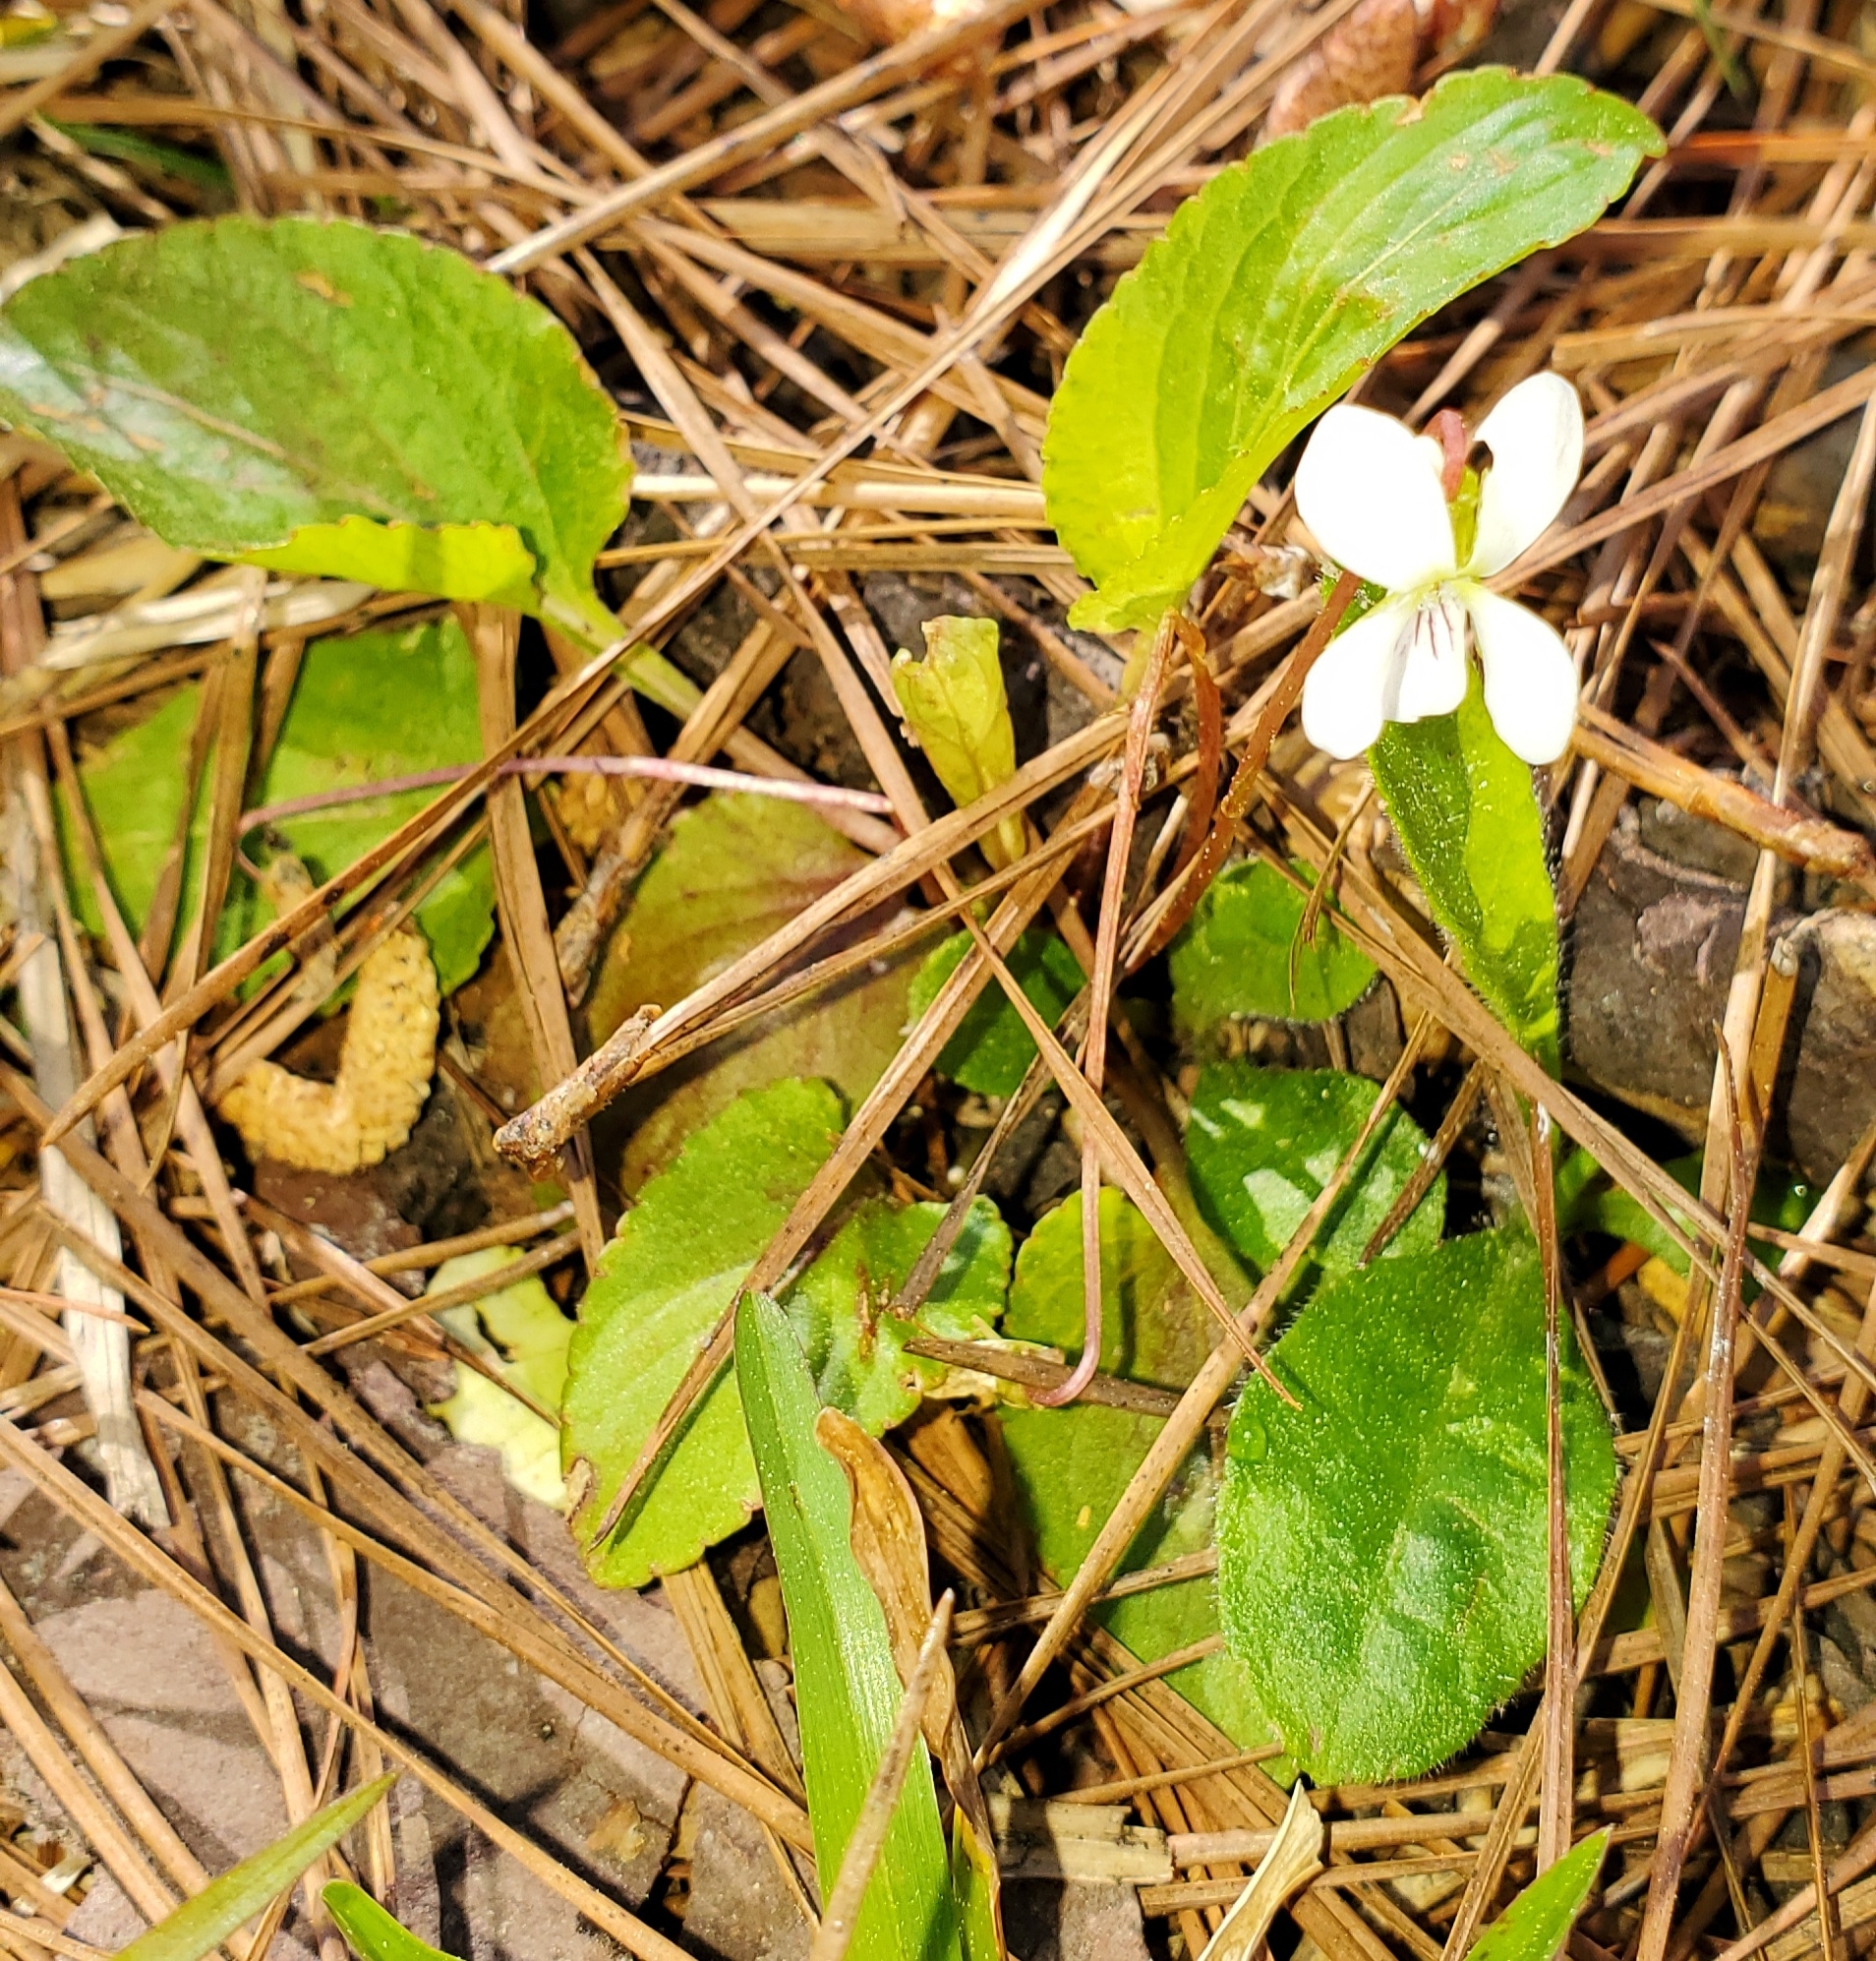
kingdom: Plantae
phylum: Tracheophyta
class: Magnoliopsida
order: Malpighiales
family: Violaceae
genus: Viola
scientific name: Viola primulifolia
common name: Primrose-leaf violet
